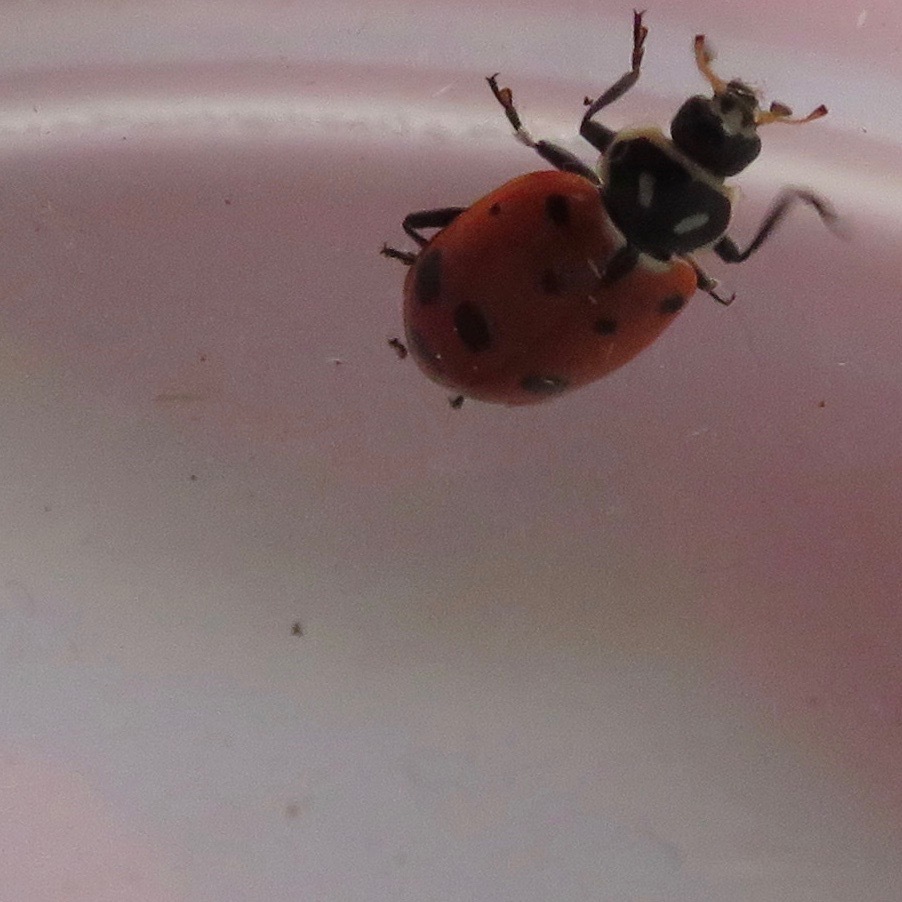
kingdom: Animalia
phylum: Arthropoda
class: Insecta
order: Coleoptera
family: Coccinellidae
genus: Hippodamia
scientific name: Hippodamia convergens
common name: Convergent lady beetle
